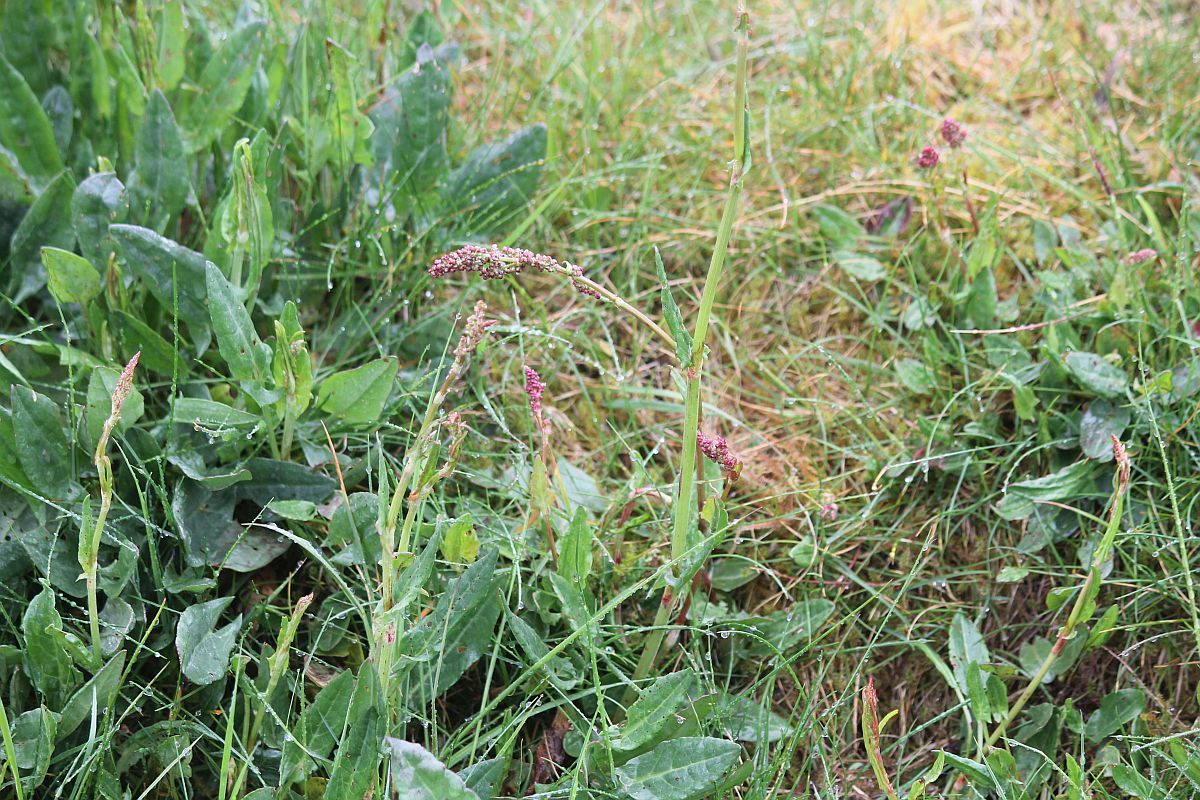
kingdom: Plantae
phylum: Tracheophyta
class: Magnoliopsida
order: Caryophyllales
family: Polygonaceae
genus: Rumex
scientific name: Rumex acetosa
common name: Garden sorrel
